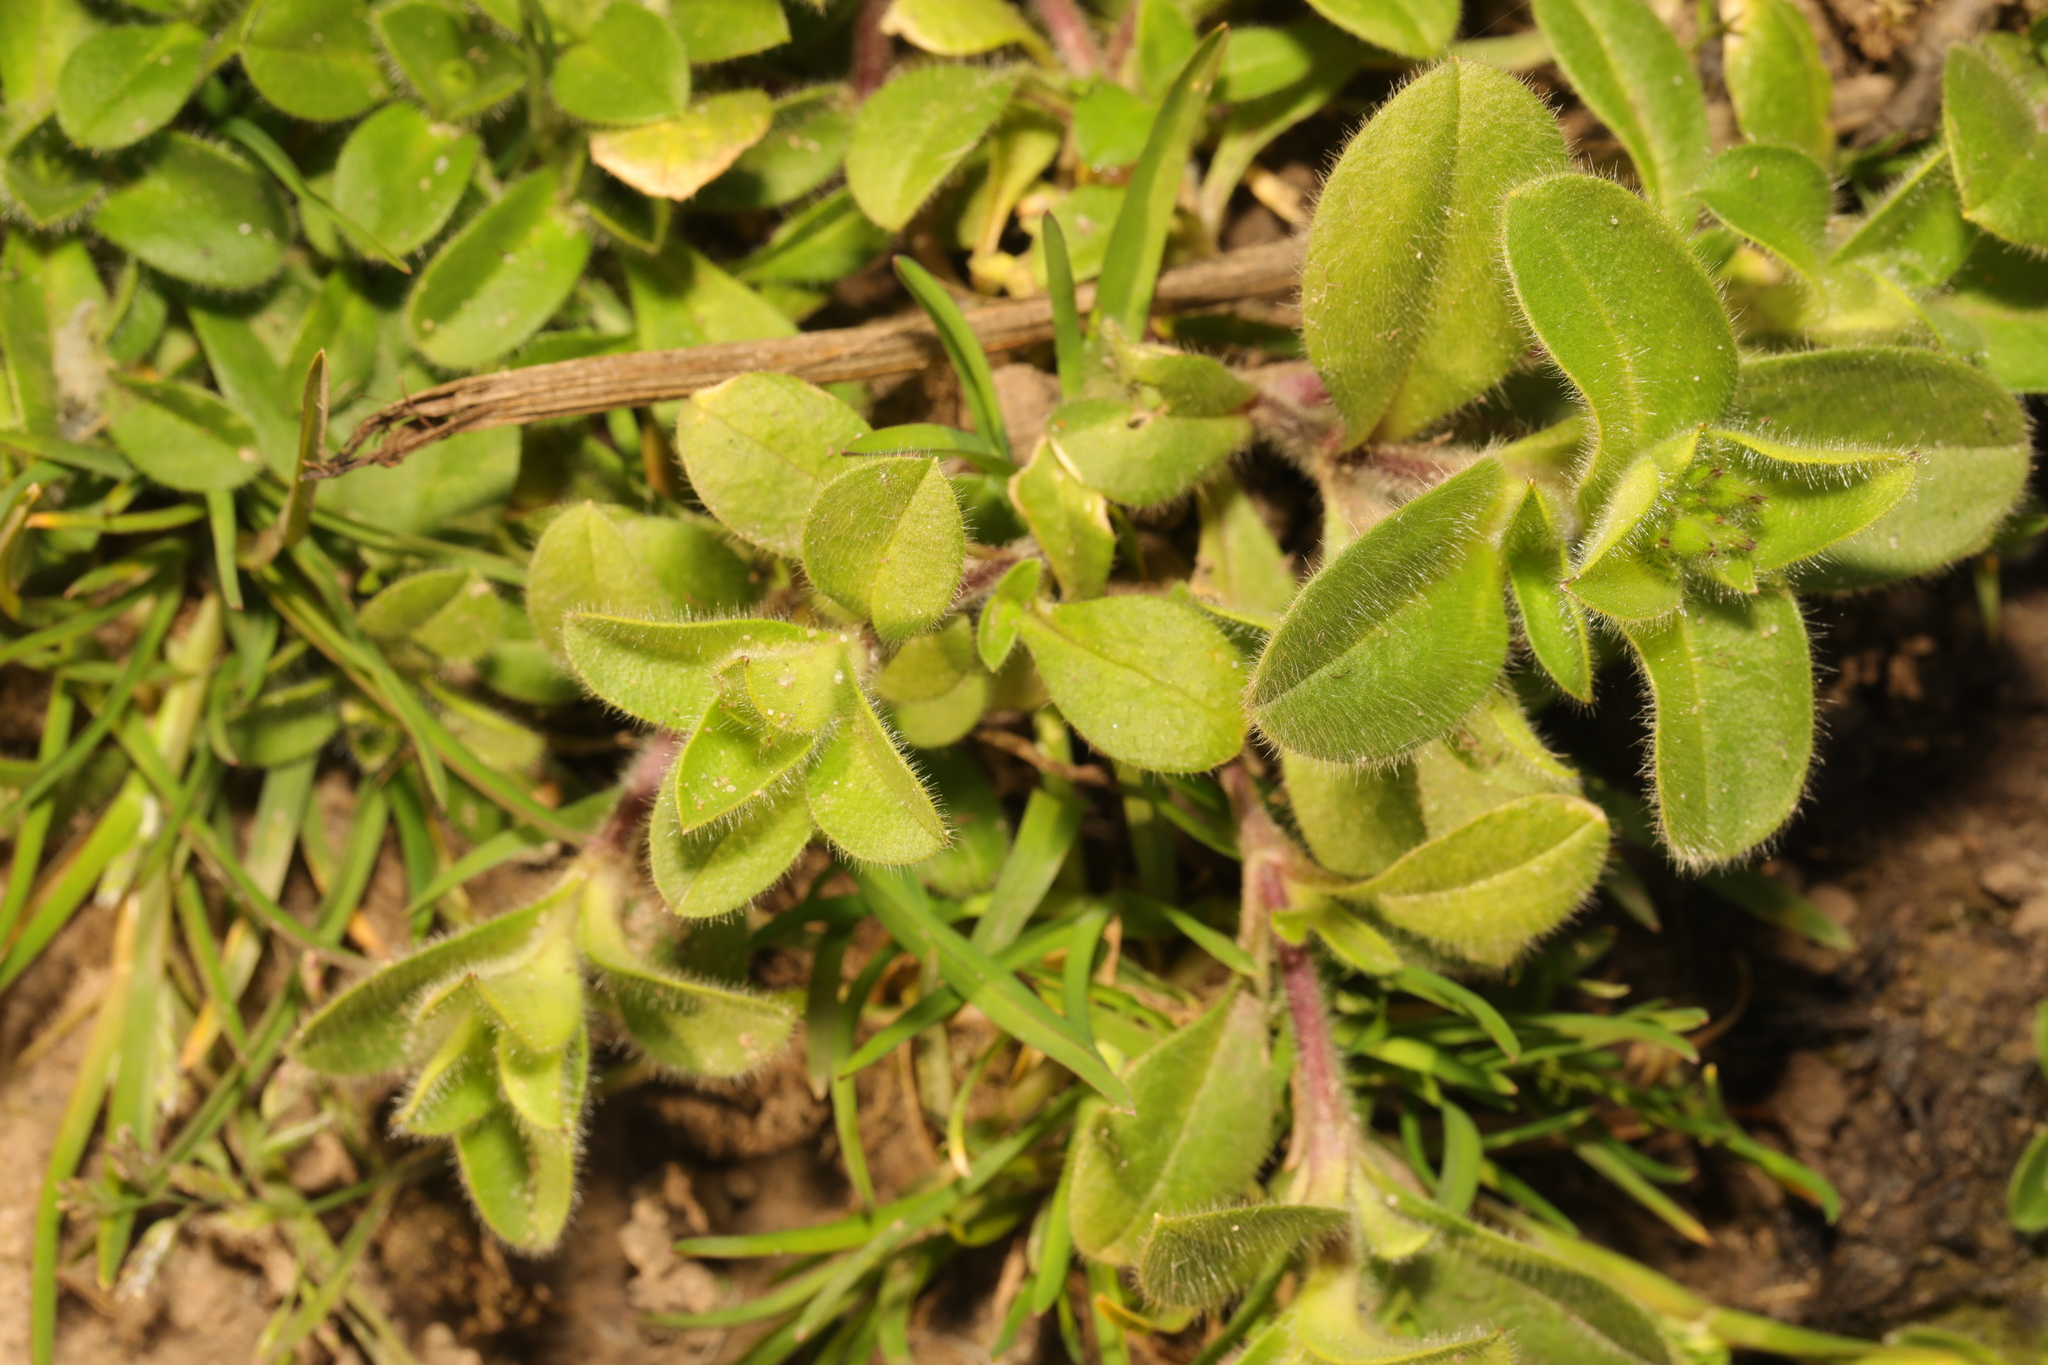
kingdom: Plantae
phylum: Tracheophyta
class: Magnoliopsida
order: Caryophyllales
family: Caryophyllaceae
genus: Cerastium
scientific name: Cerastium glomeratum
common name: Sticky chickweed
